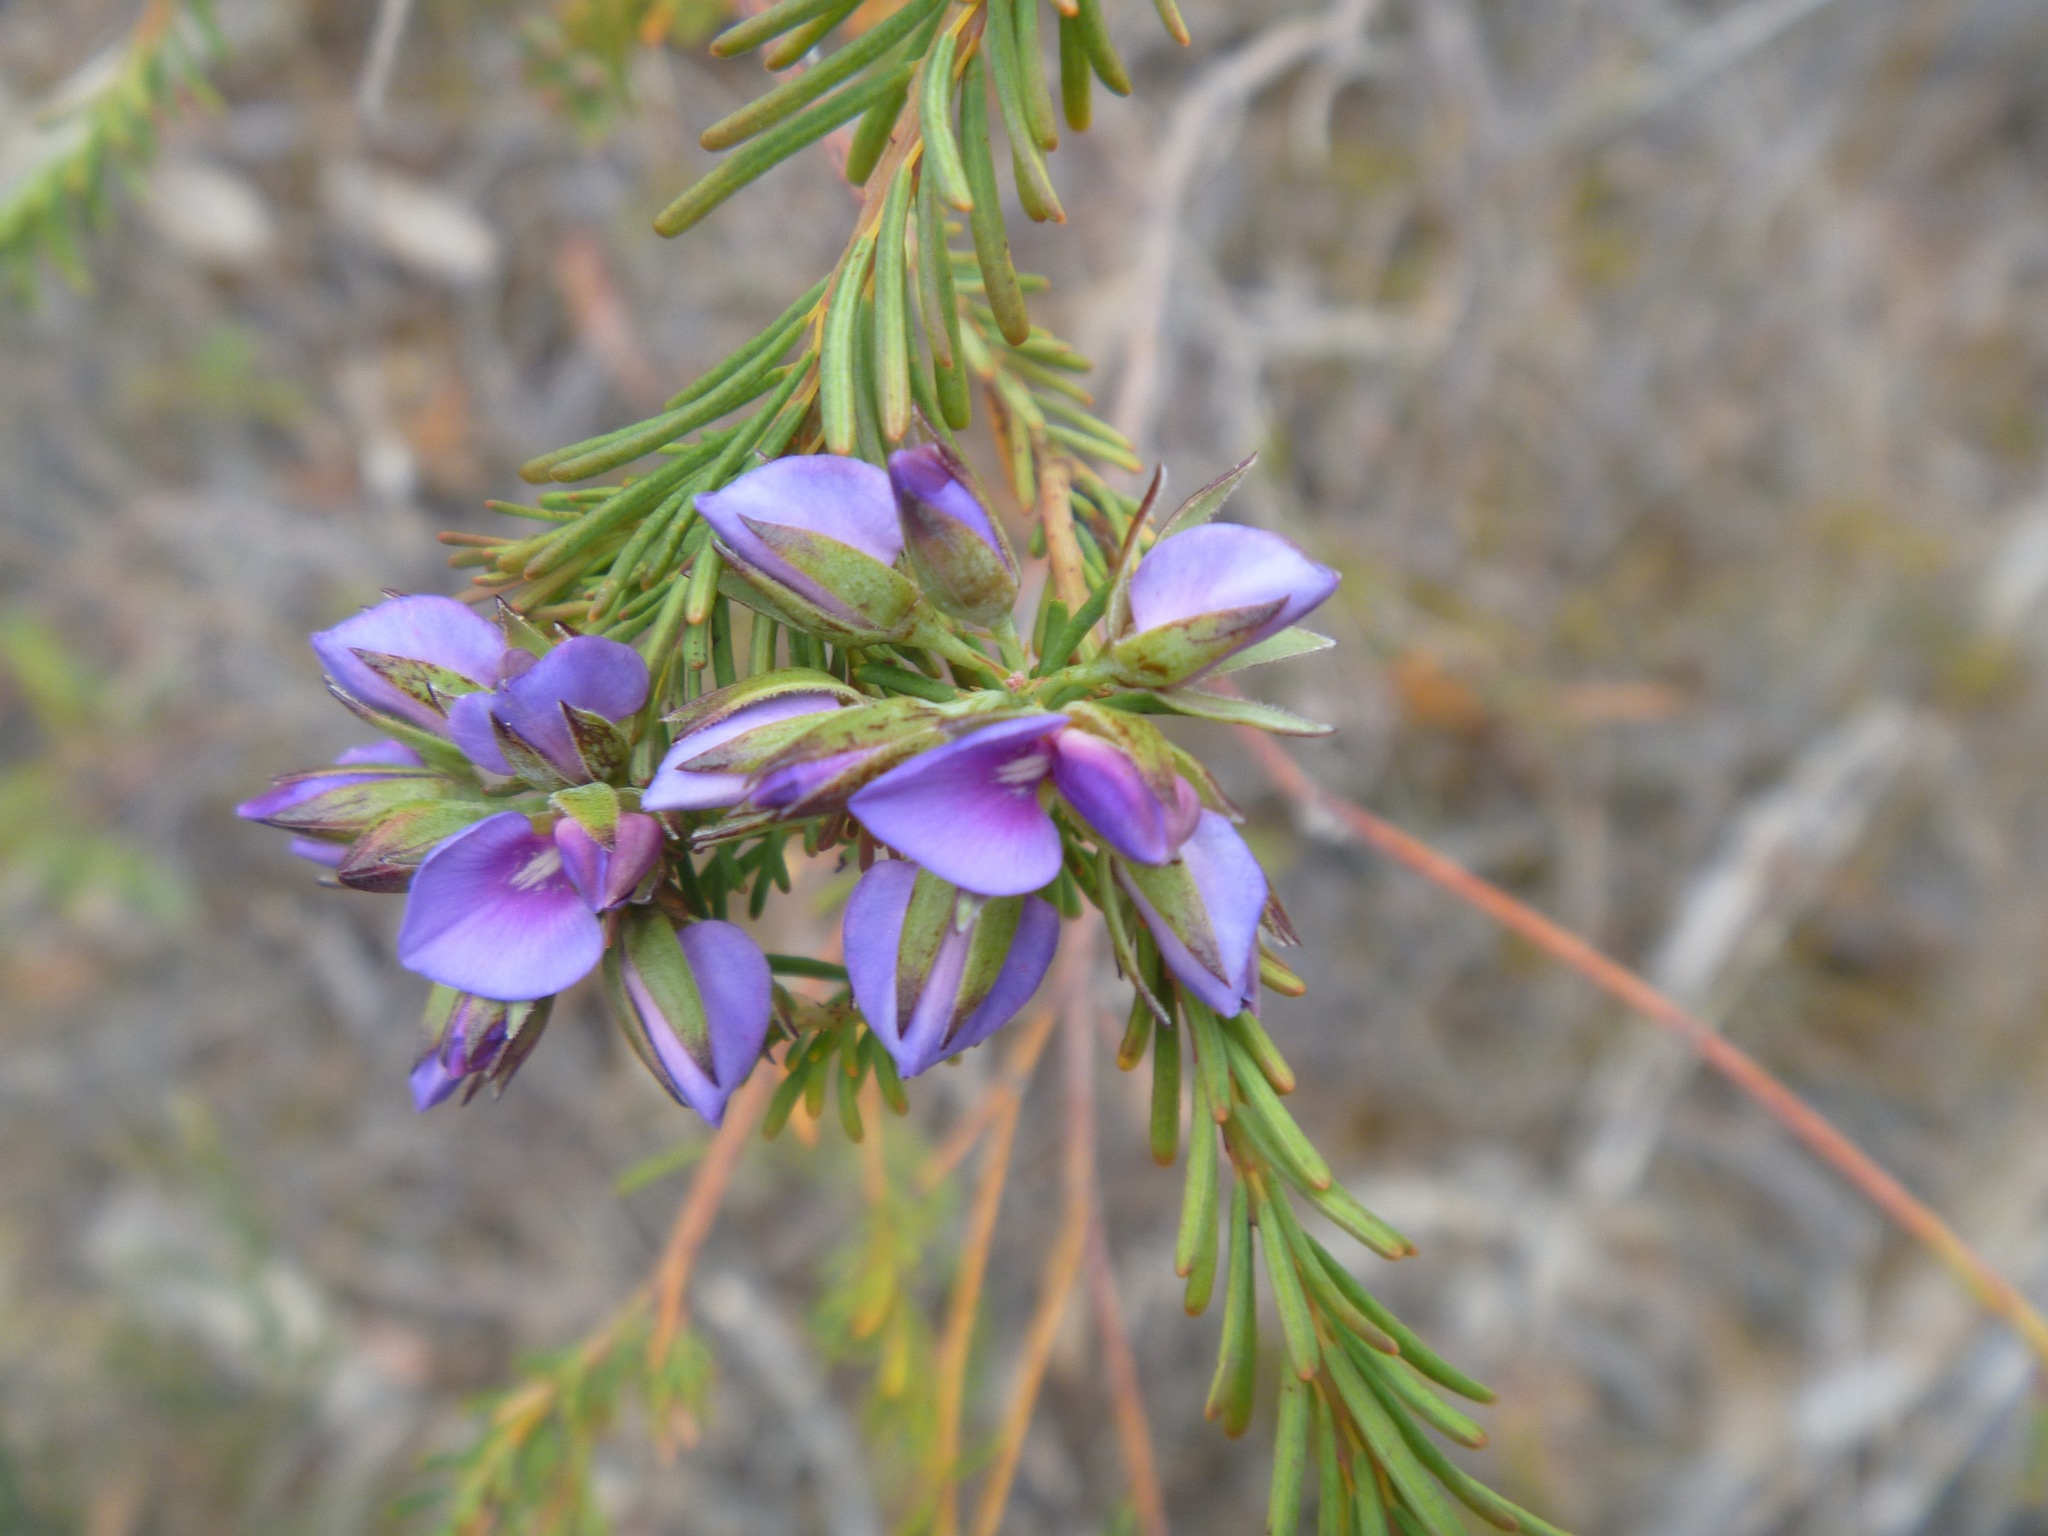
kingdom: Plantae
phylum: Tracheophyta
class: Magnoliopsida
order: Fabales
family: Fabaceae
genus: Gompholobium
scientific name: Gompholobium confertum
